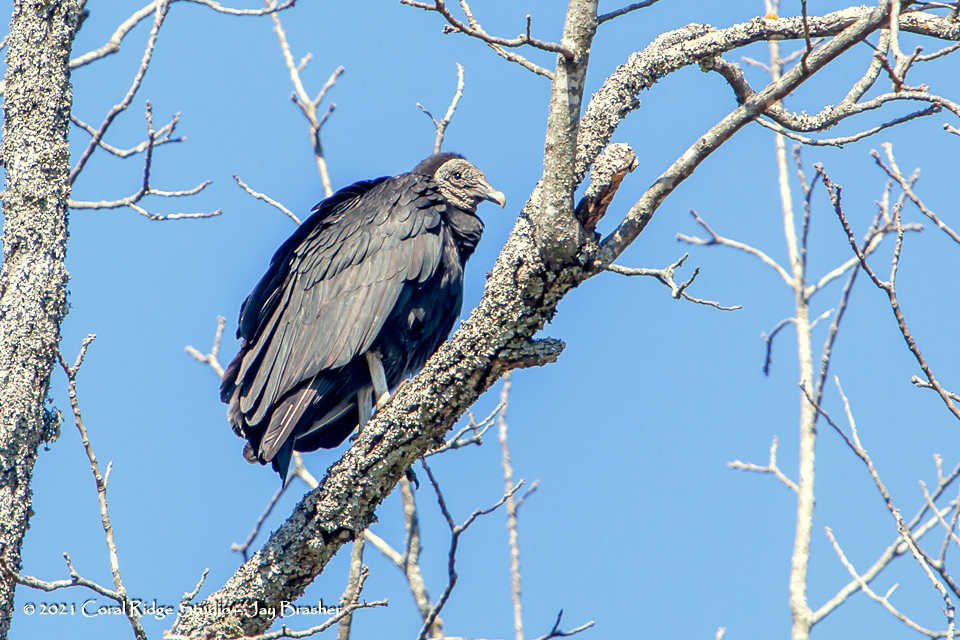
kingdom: Animalia
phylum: Chordata
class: Aves
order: Accipitriformes
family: Cathartidae
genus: Coragyps
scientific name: Coragyps atratus
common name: Black vulture
